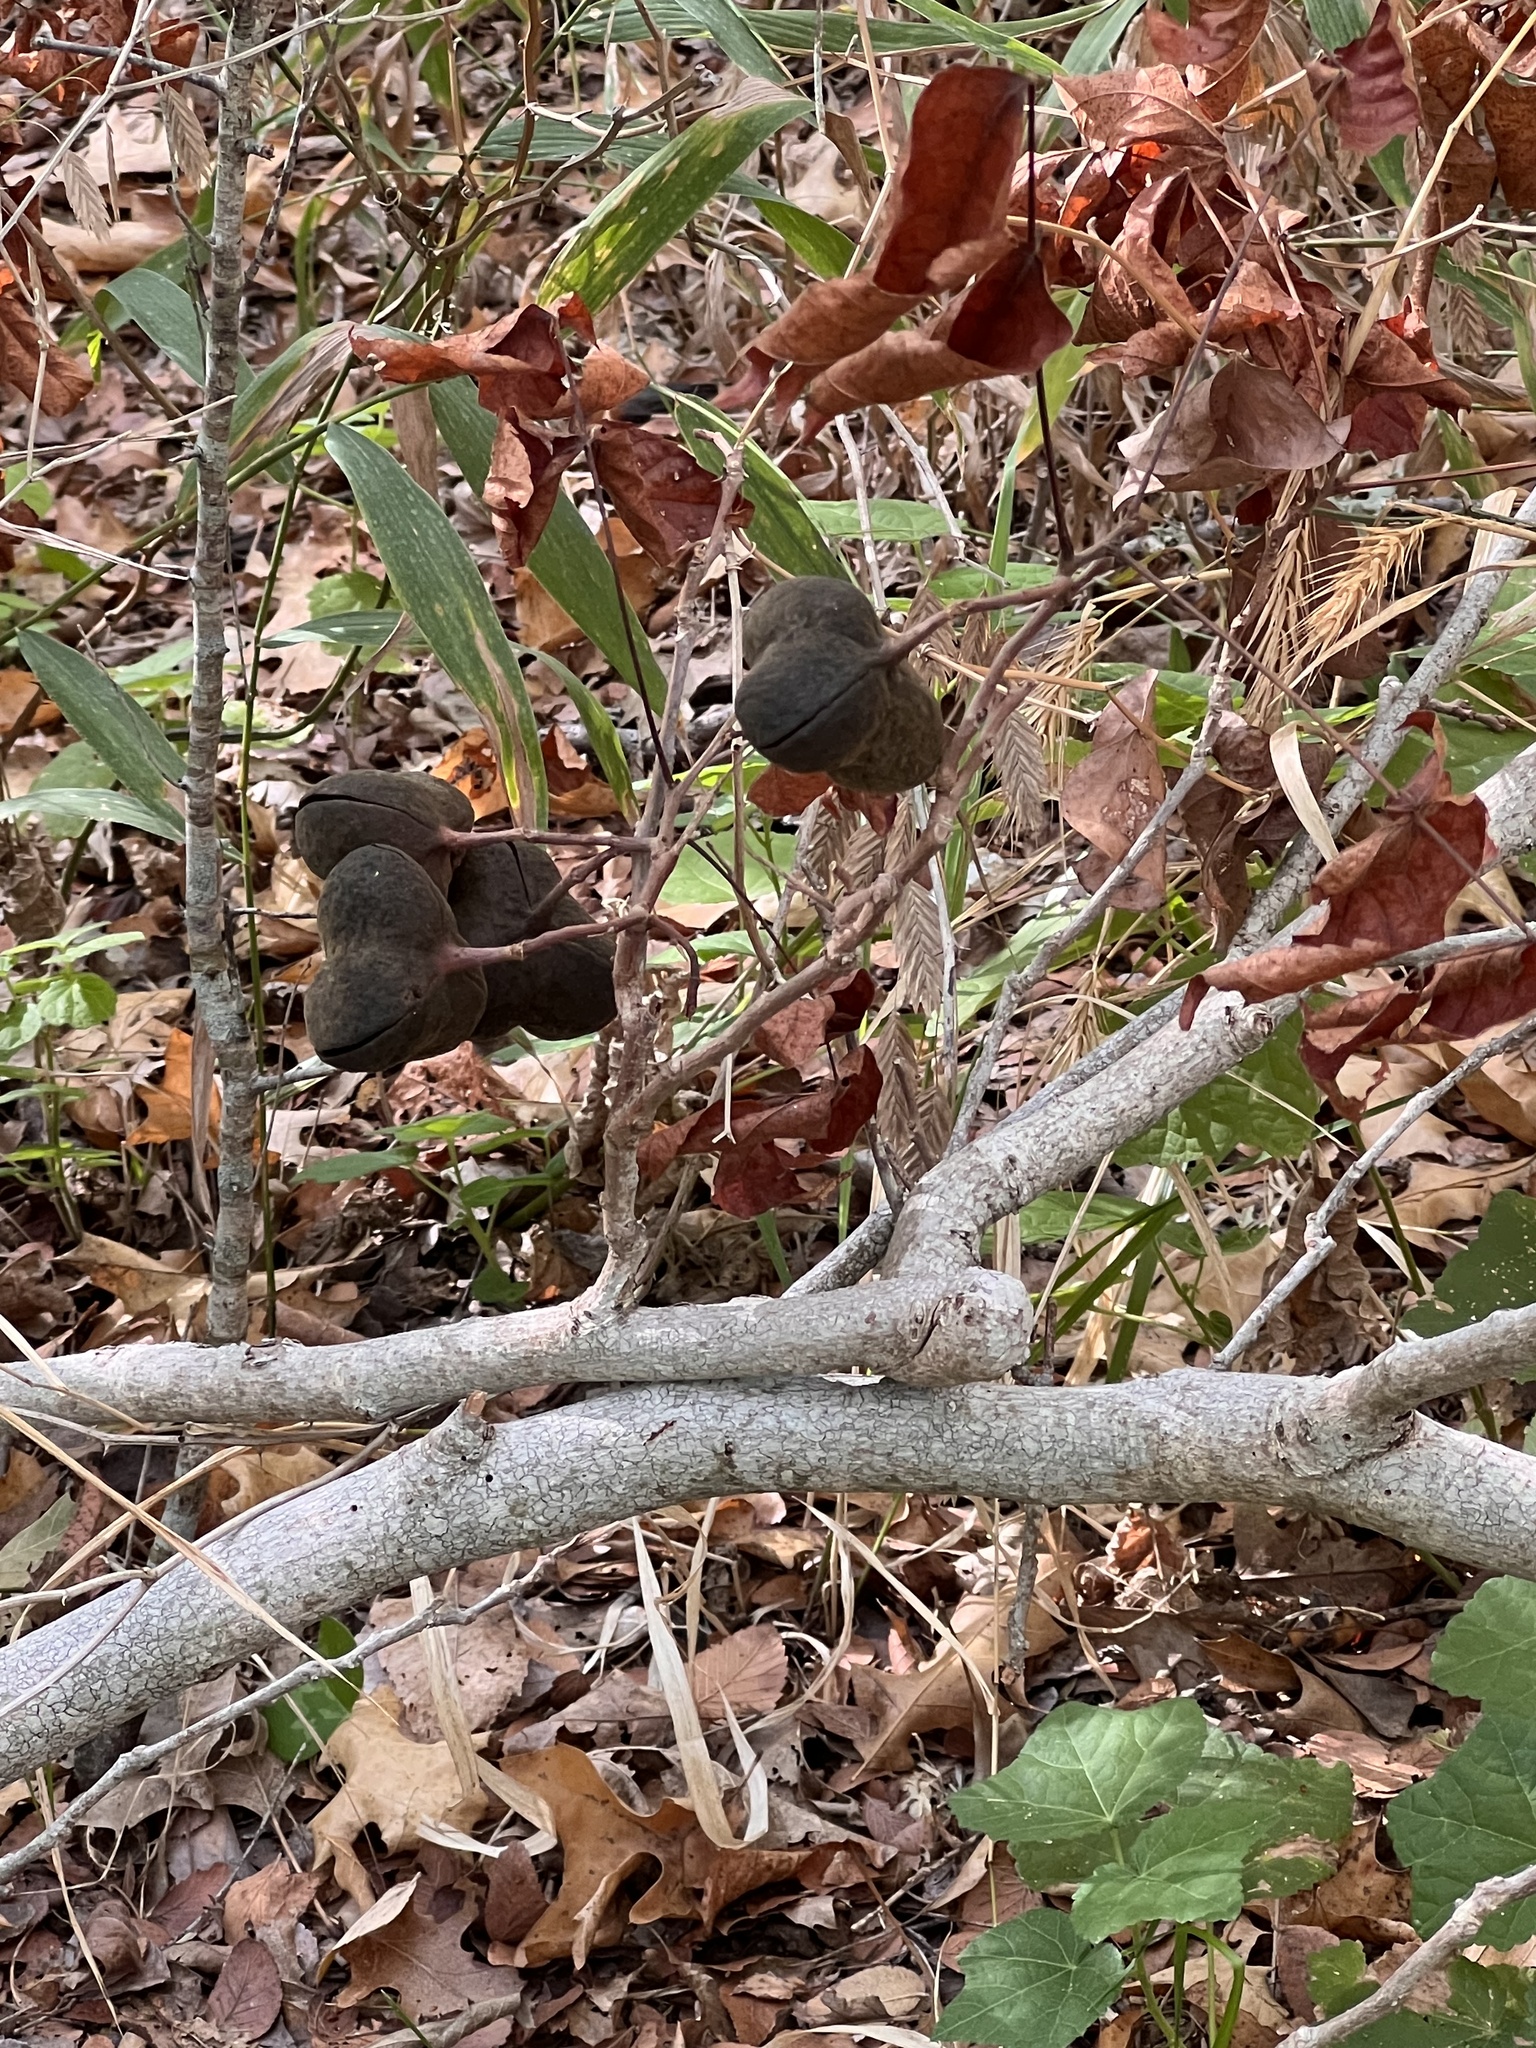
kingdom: Plantae
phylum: Tracheophyta
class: Magnoliopsida
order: Sapindales
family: Sapindaceae
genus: Ungnadia
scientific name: Ungnadia speciosa
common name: Texas-buckeye
